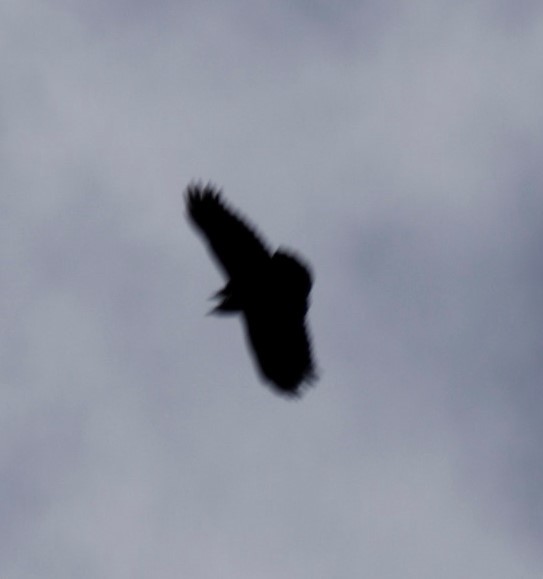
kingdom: Animalia
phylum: Chordata
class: Aves
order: Passeriformes
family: Corvidae
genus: Corvus
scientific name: Corvus albicollis
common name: White-necked raven
